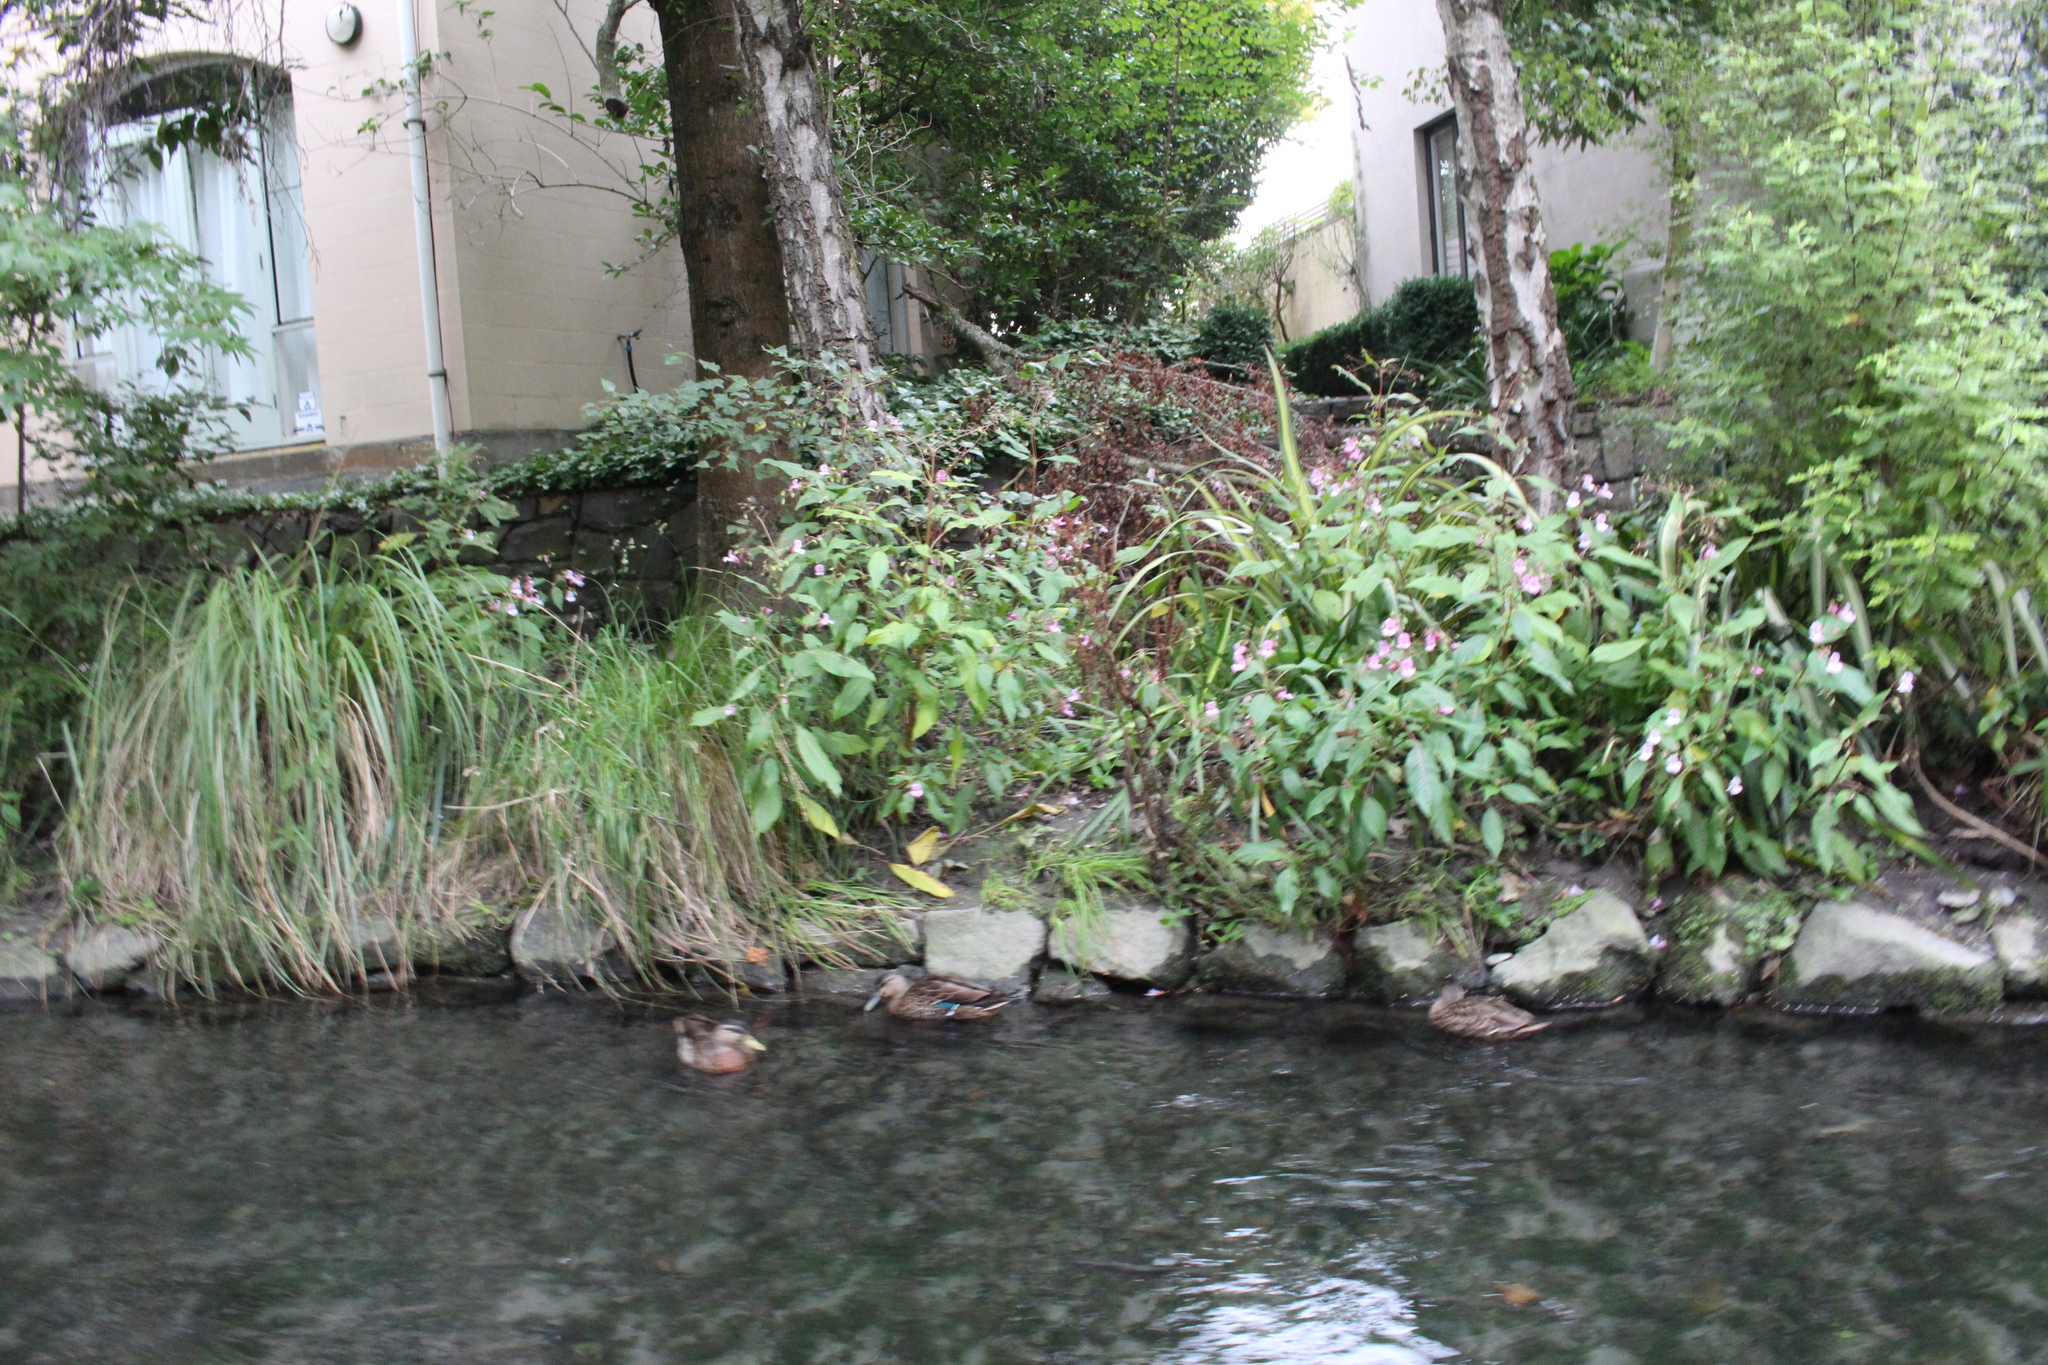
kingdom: Plantae
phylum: Tracheophyta
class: Magnoliopsida
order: Ericales
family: Balsaminaceae
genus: Impatiens
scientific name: Impatiens glandulifera
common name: Himalayan balsam
